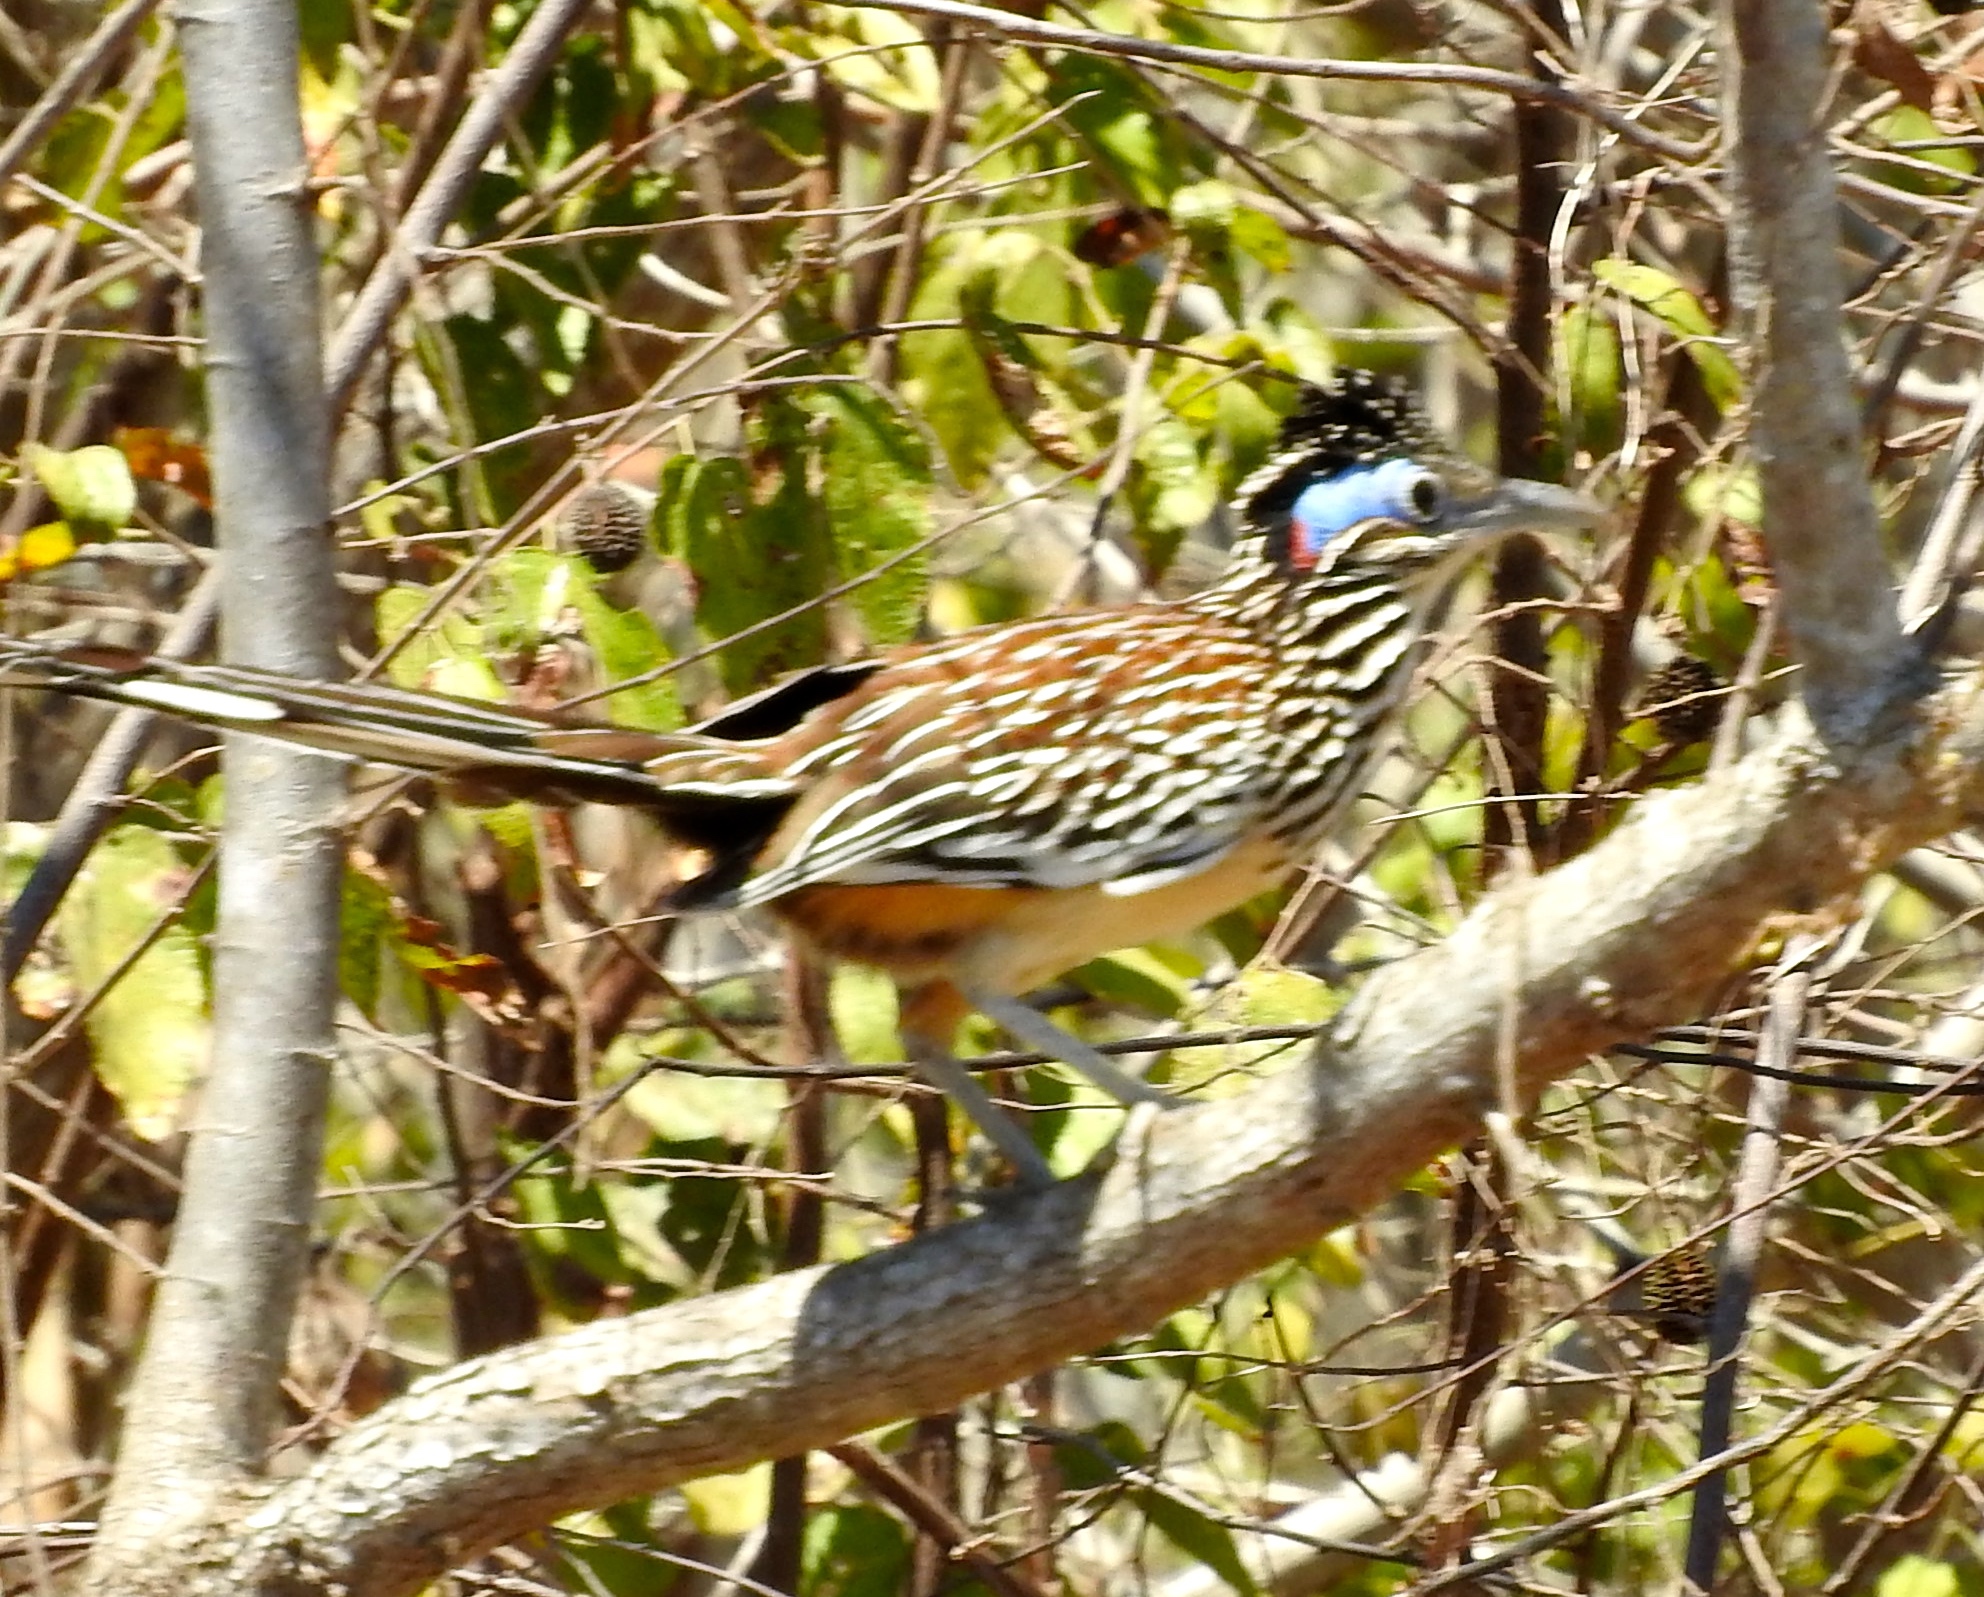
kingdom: Animalia
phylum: Chordata
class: Aves
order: Cuculiformes
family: Cuculidae
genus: Geococcyx
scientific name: Geococcyx velox
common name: Lesser roadrunner
